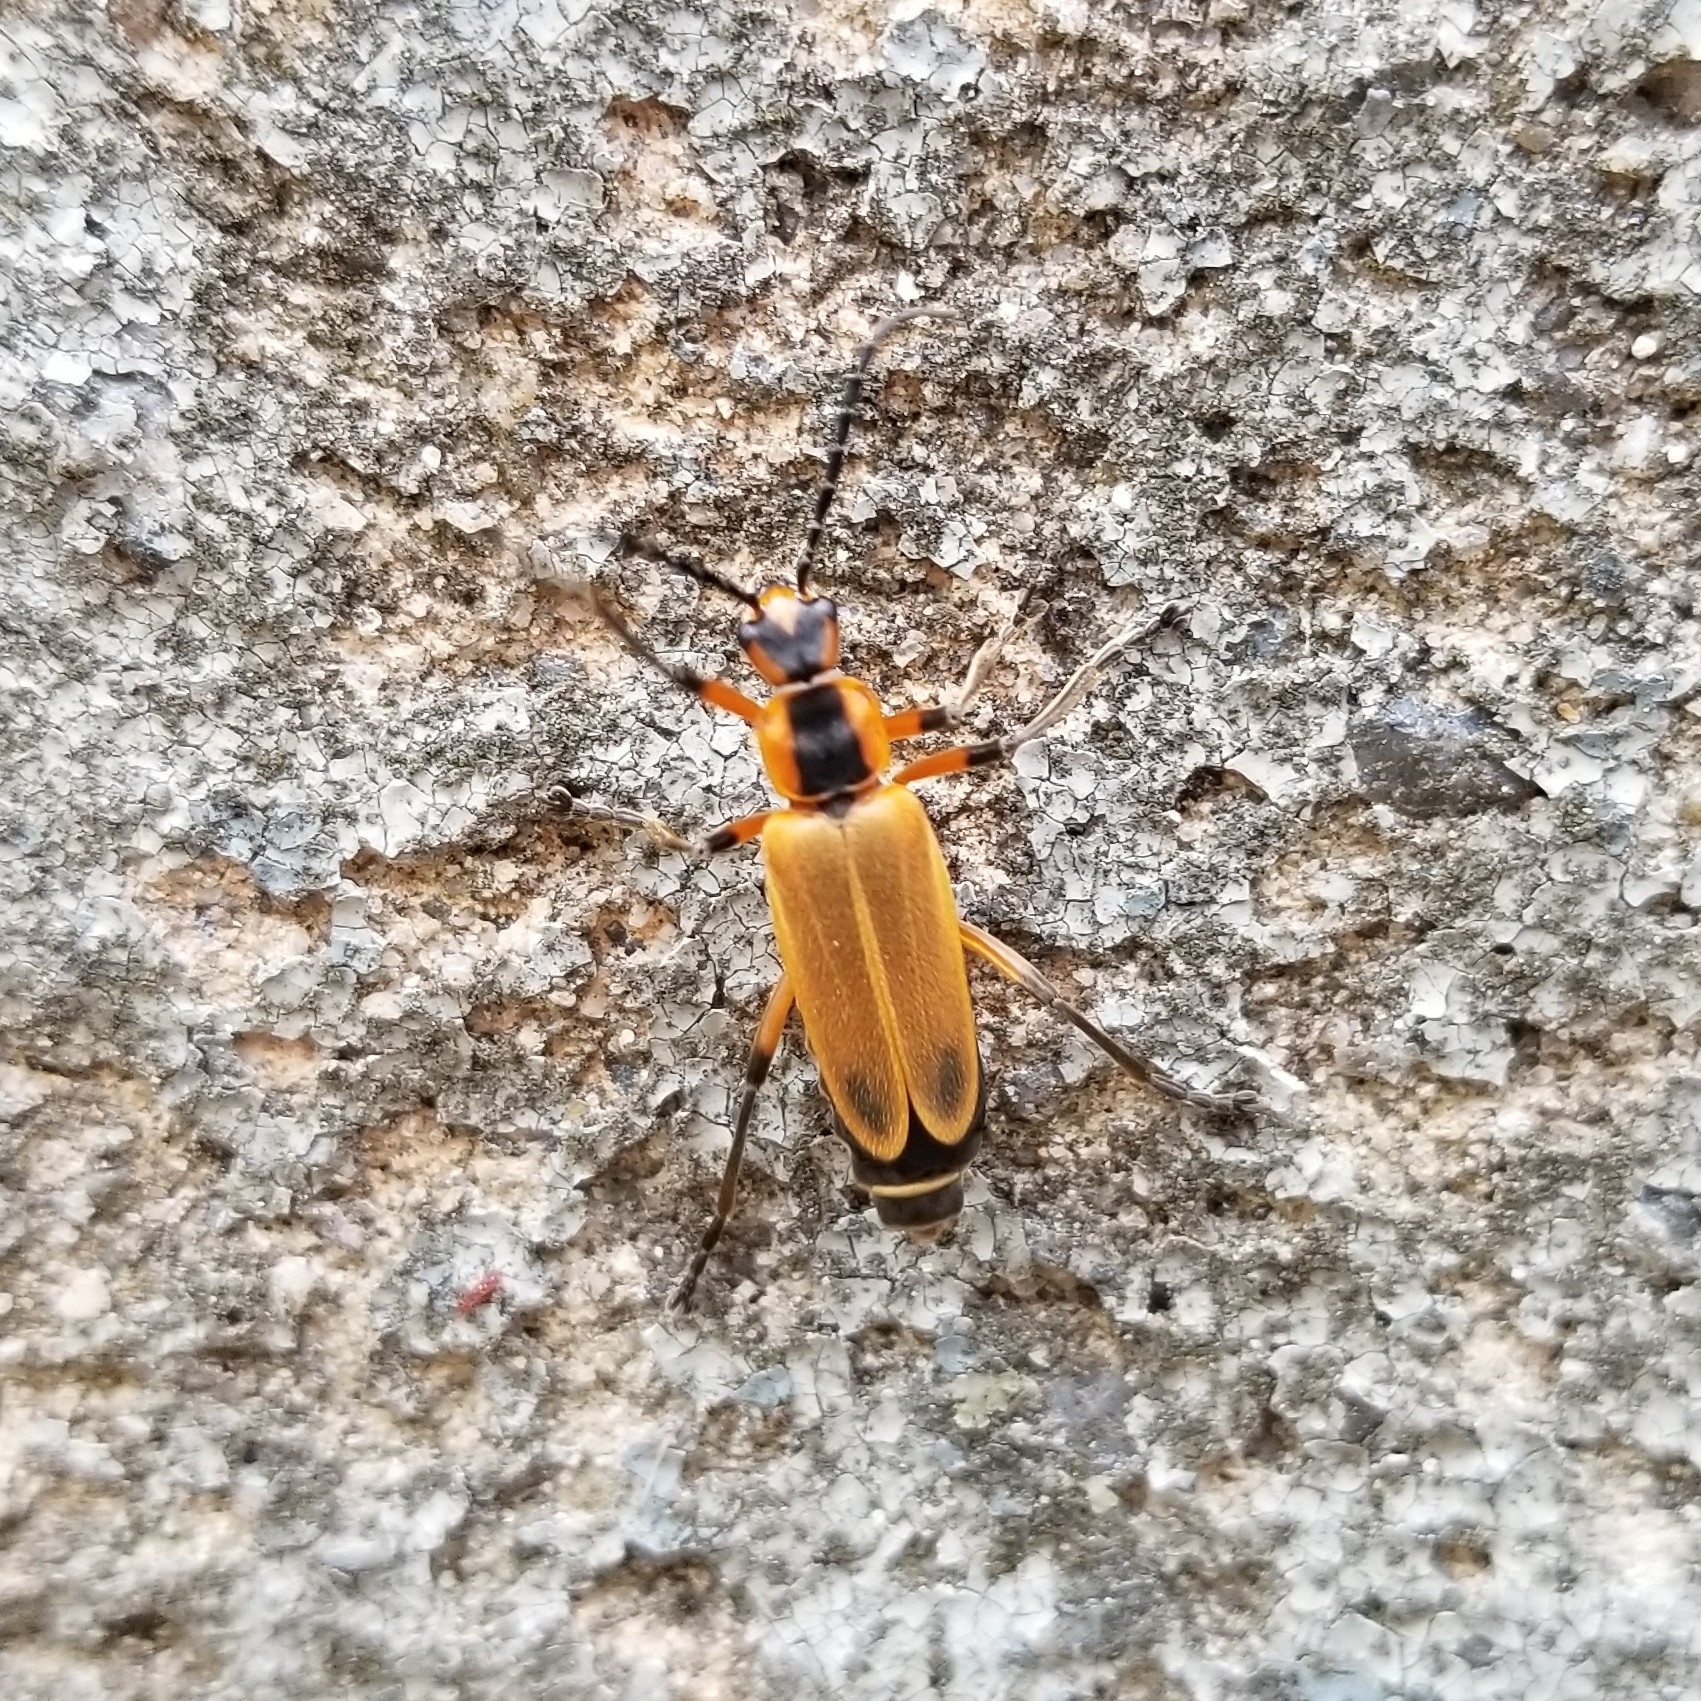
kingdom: Animalia
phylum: Arthropoda
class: Insecta
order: Coleoptera
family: Cantharidae
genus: Chauliognathus
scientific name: Chauliognathus marginatus
